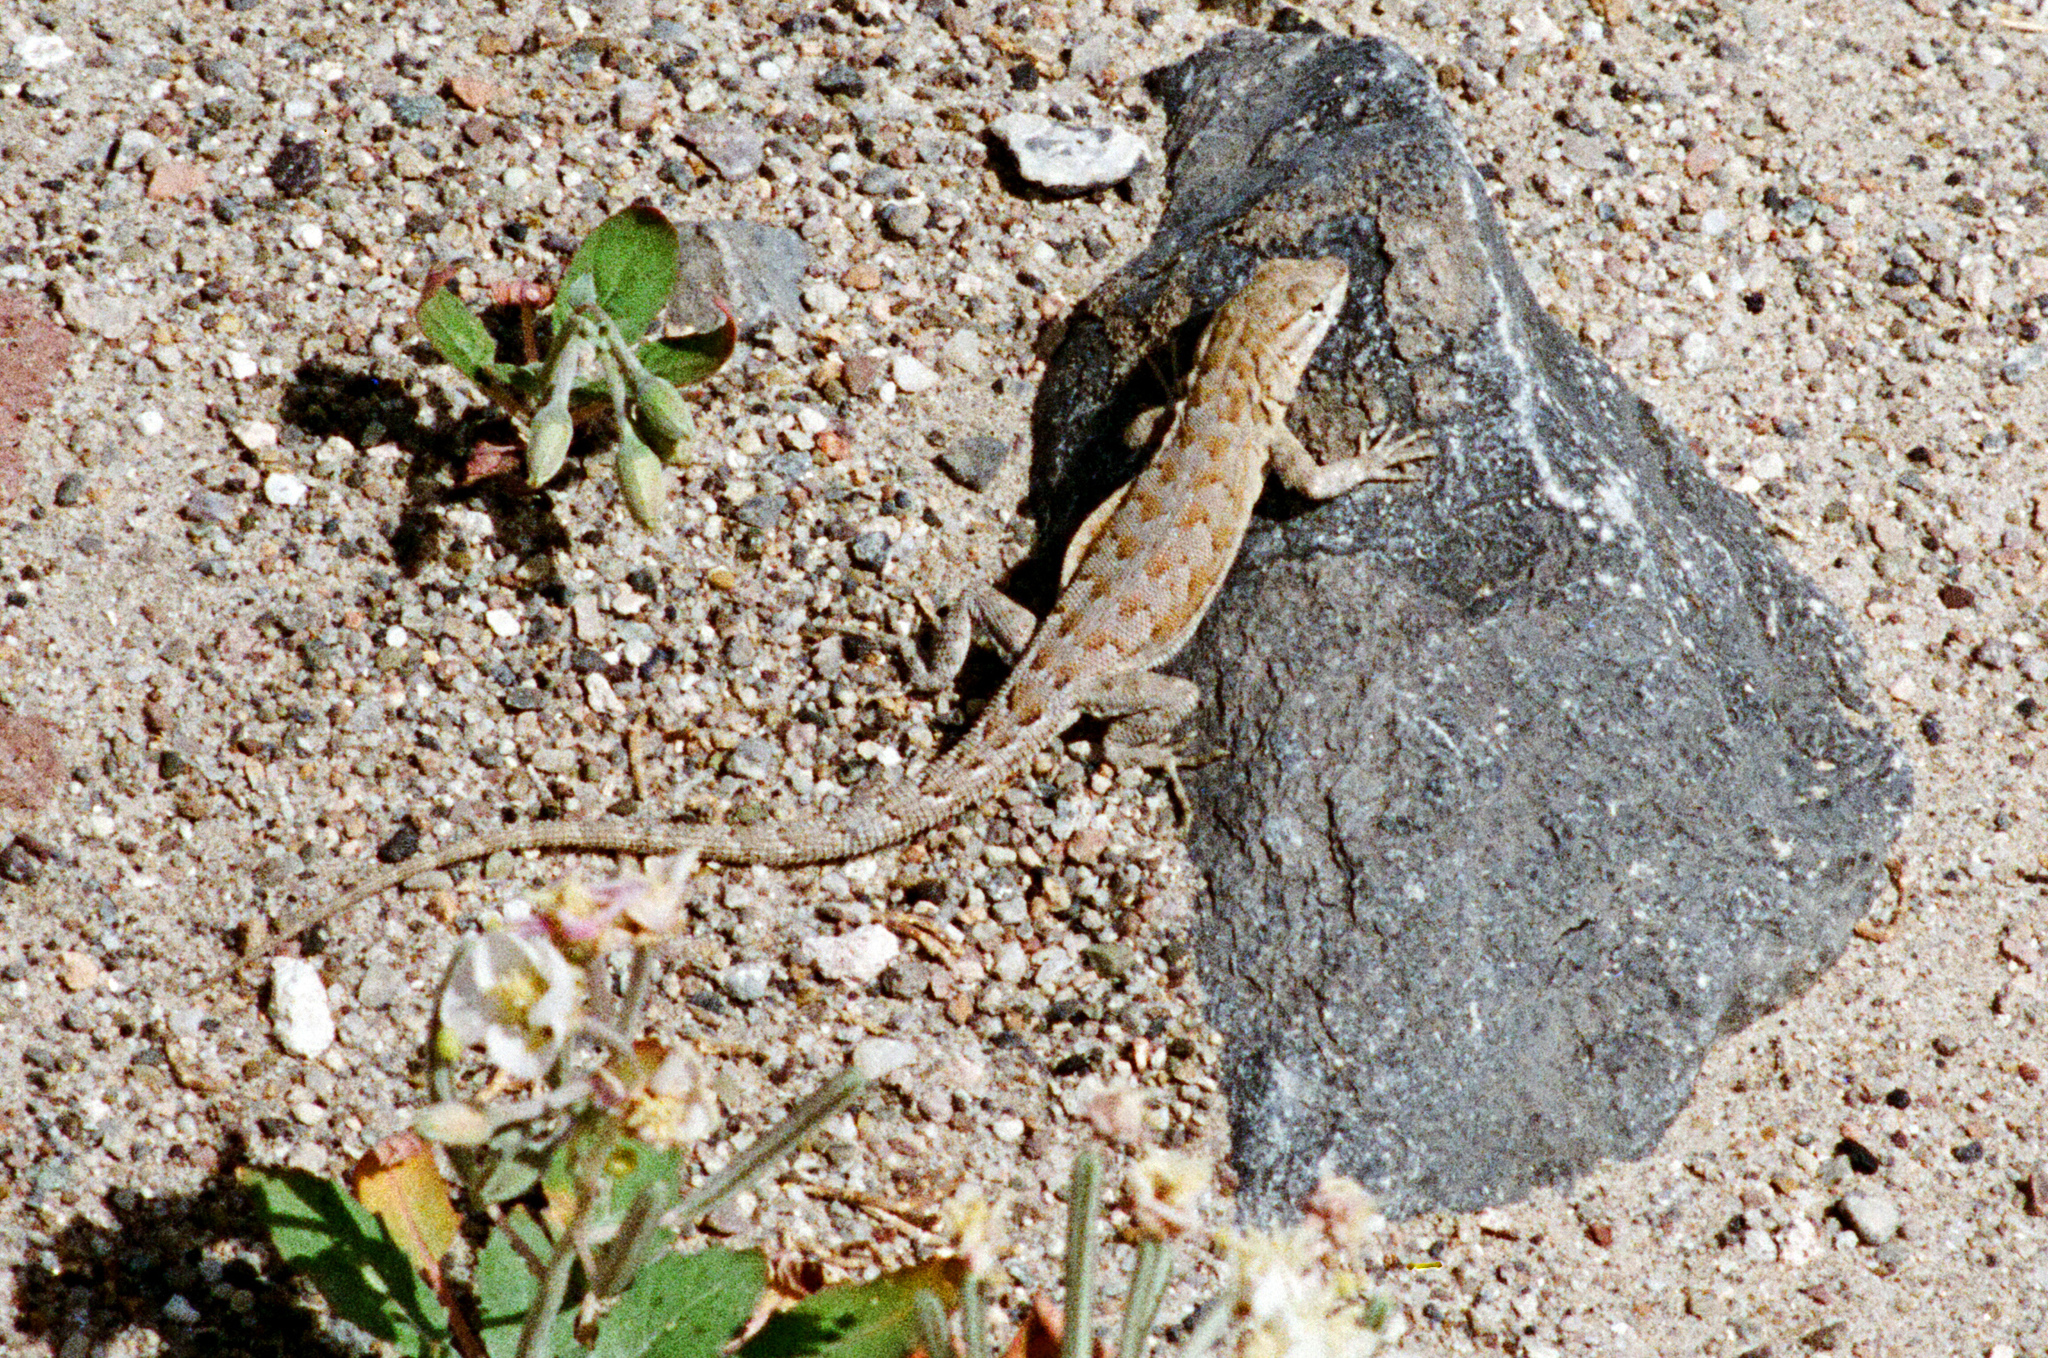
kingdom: Animalia
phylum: Chordata
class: Squamata
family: Phrynosomatidae
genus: Uta
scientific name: Uta stansburiana
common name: Side-blotched lizard
